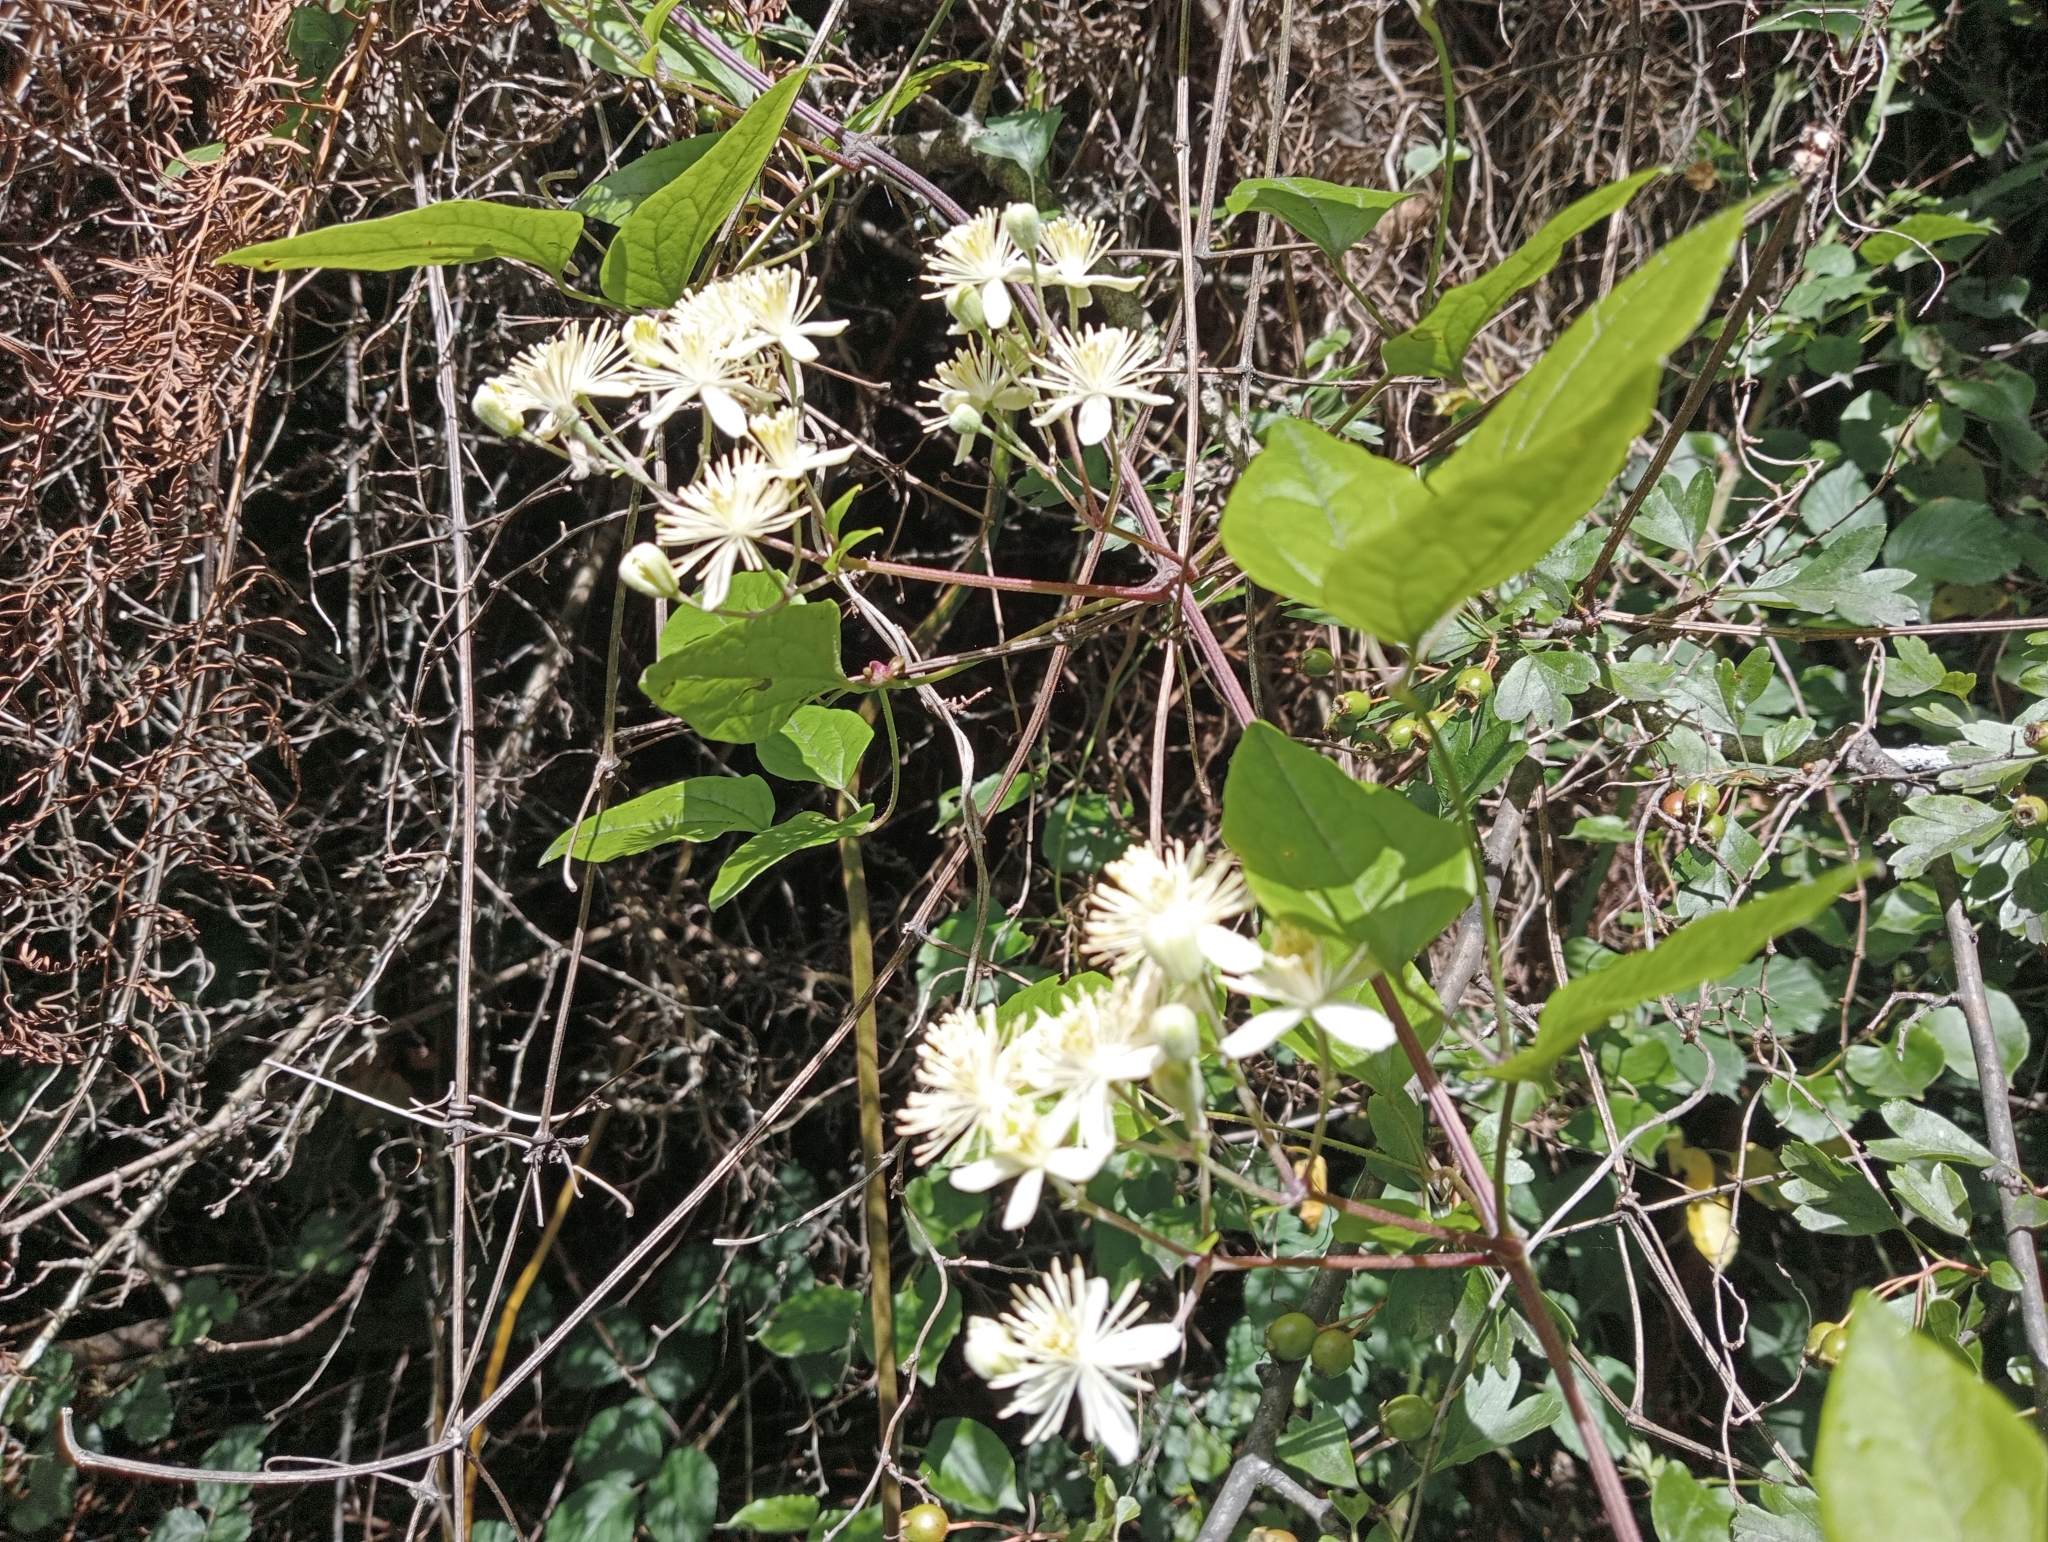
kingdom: Plantae
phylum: Tracheophyta
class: Magnoliopsida
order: Ranunculales
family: Ranunculaceae
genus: Clematis
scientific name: Clematis vitalba
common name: Evergreen clematis
